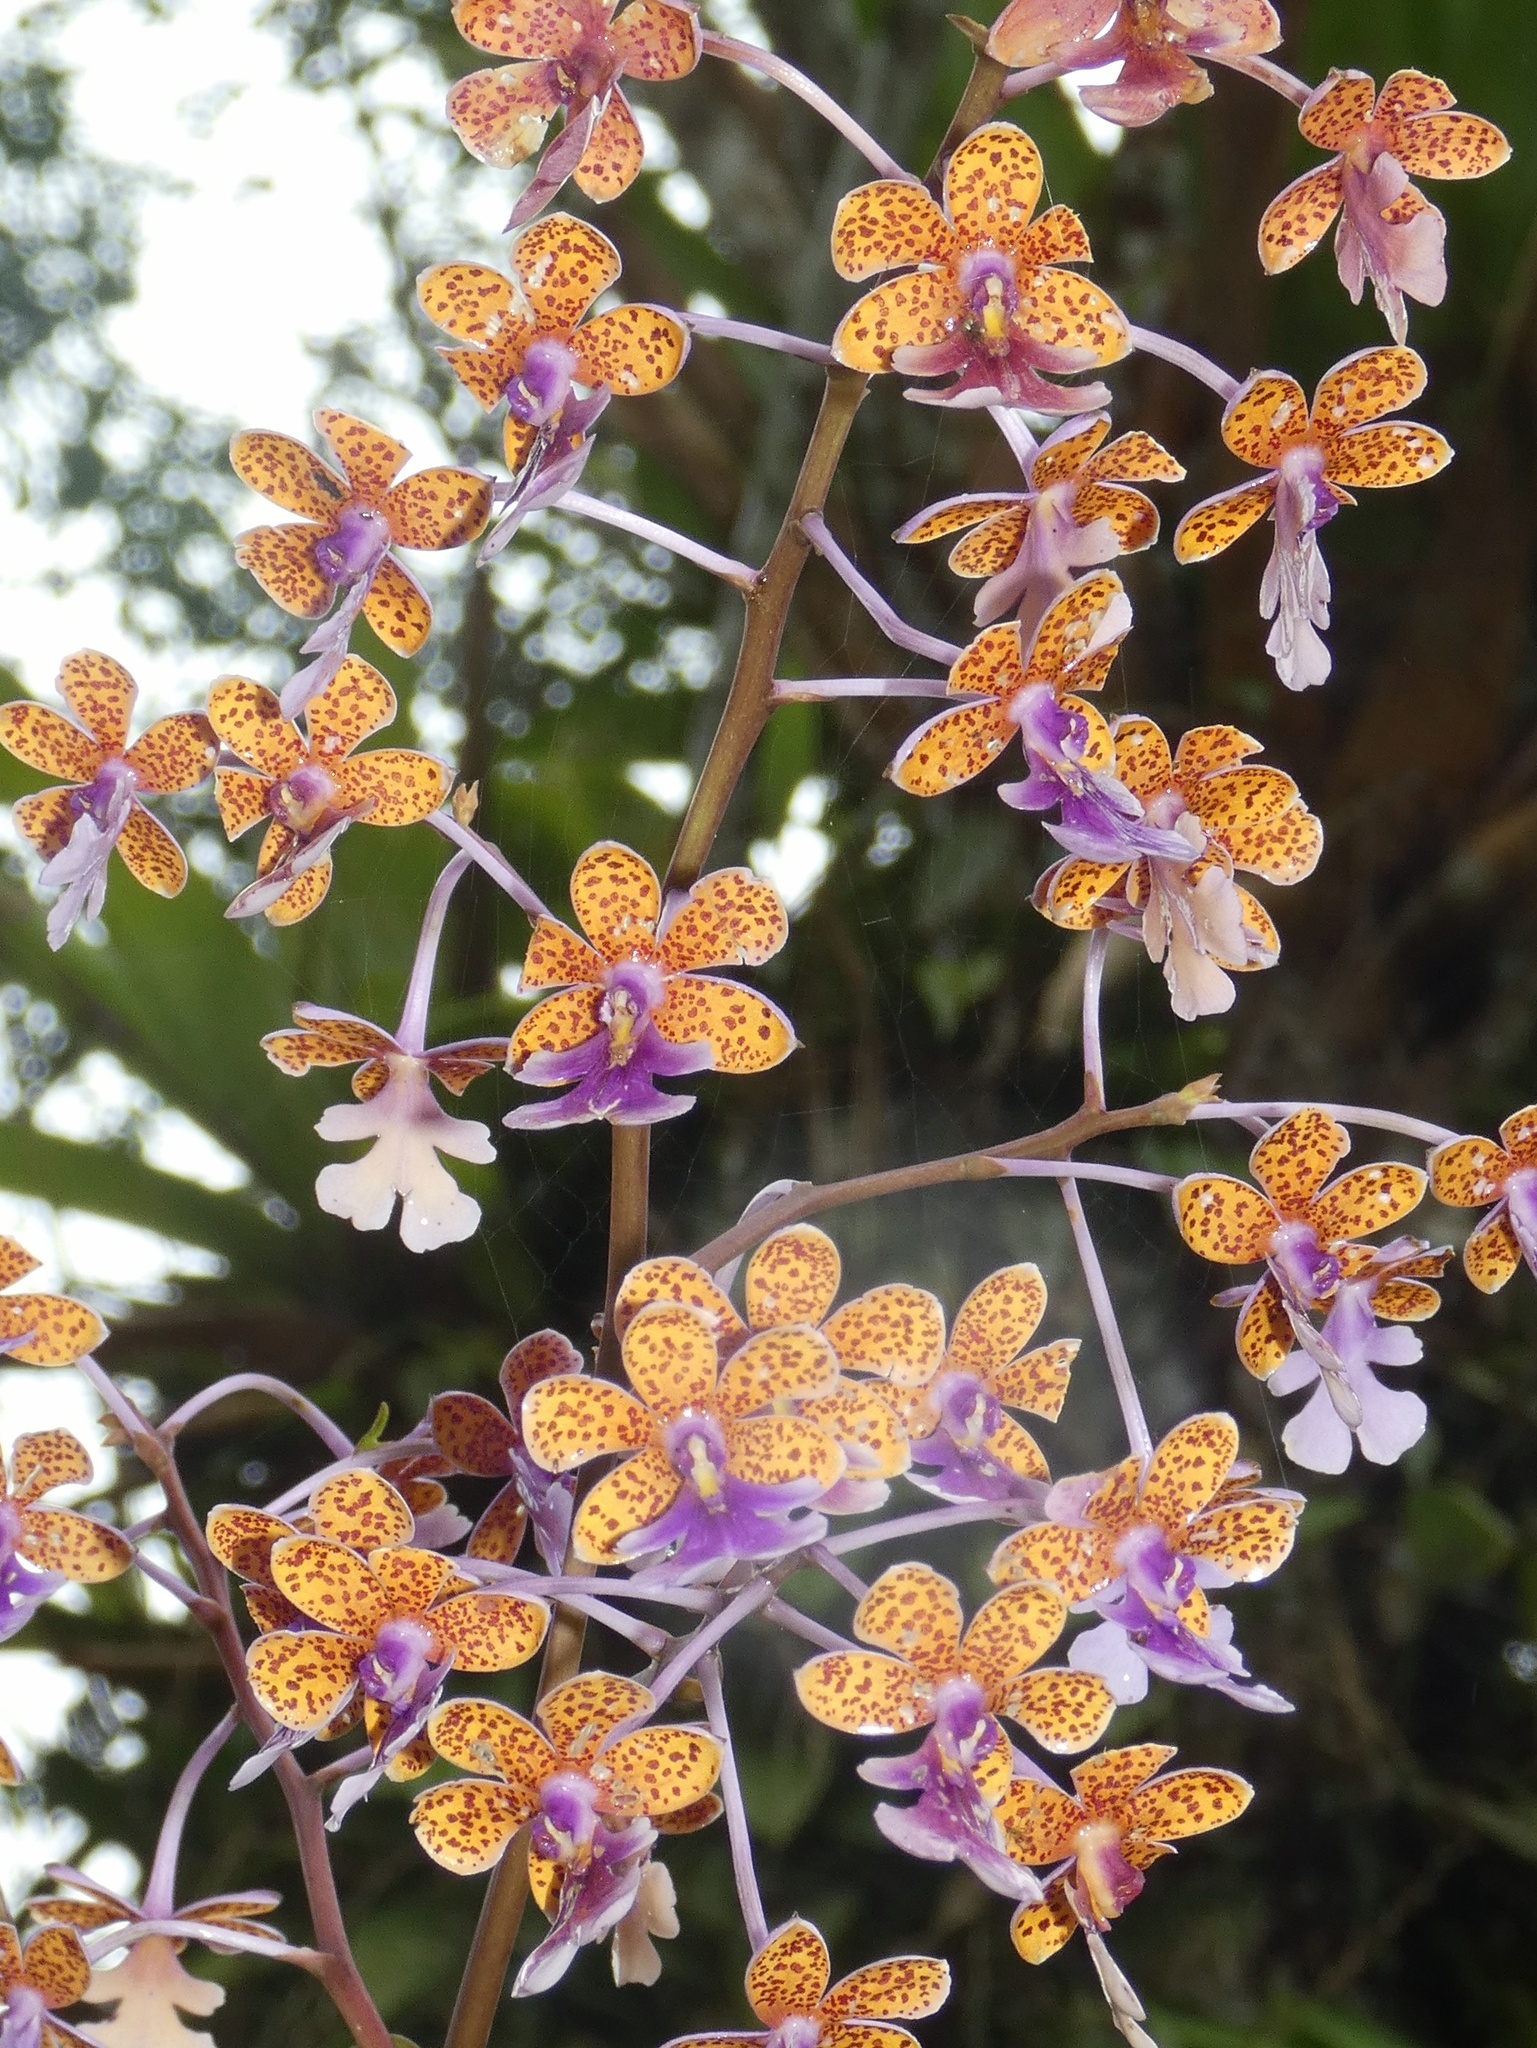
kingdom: Plantae
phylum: Tracheophyta
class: Liliopsida
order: Asparagales
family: Orchidaceae
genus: Epidendrum
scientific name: Epidendrum pseudoschumannianum
